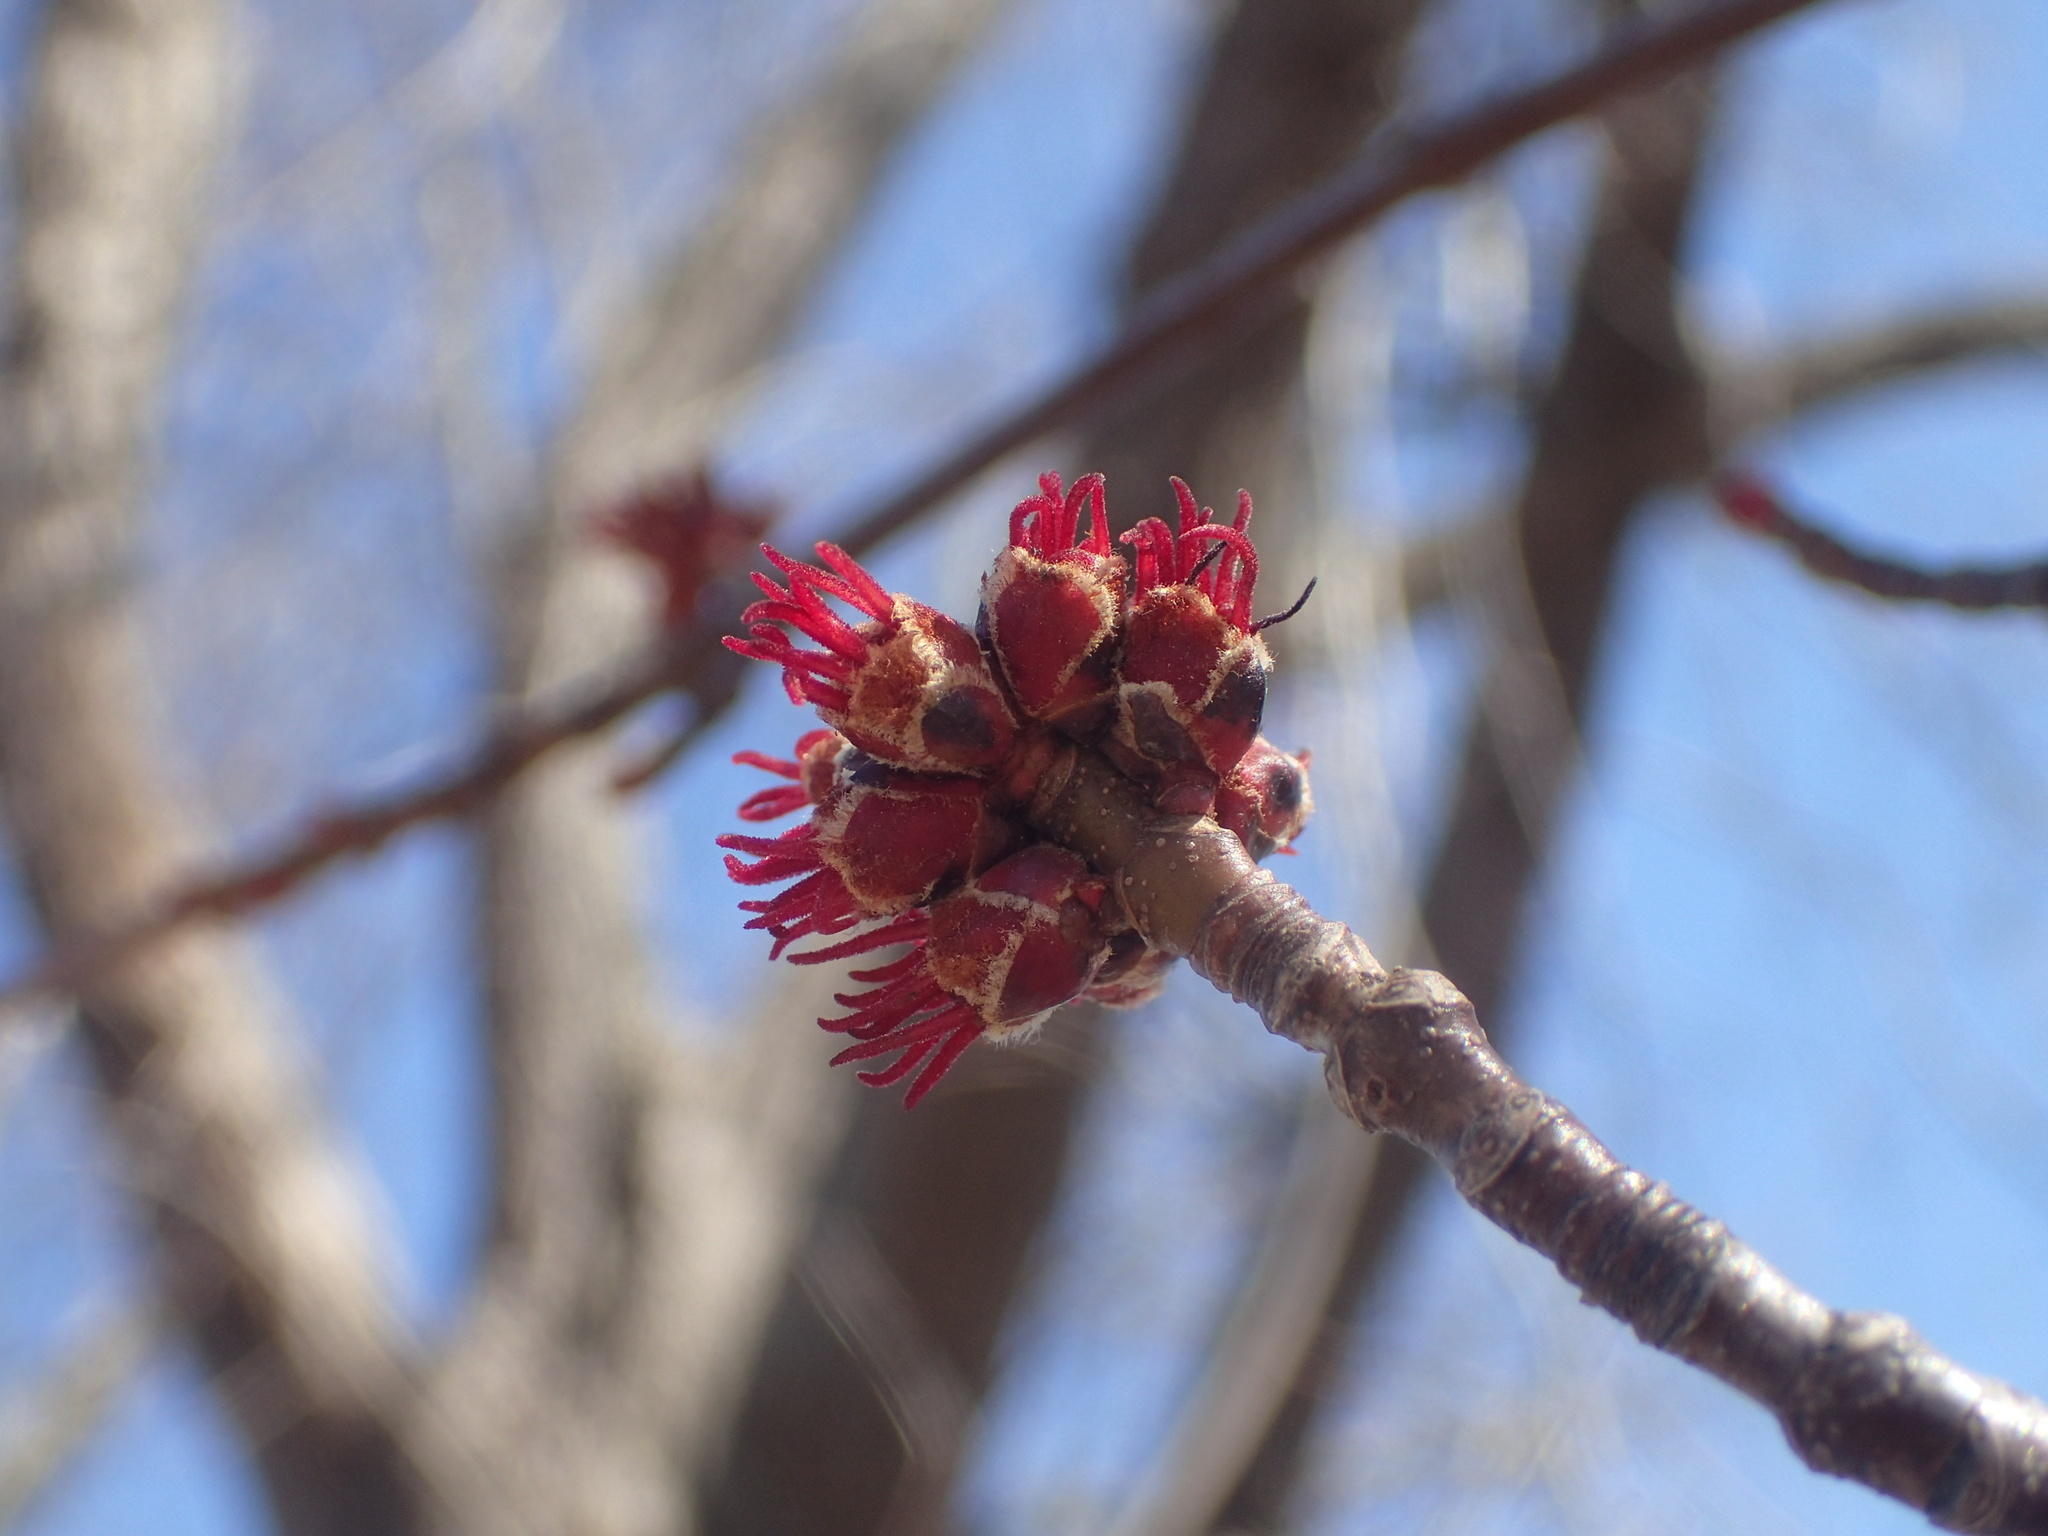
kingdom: Plantae
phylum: Tracheophyta
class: Magnoliopsida
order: Sapindales
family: Sapindaceae
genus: Acer
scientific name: Acer rubrum
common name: Red maple
